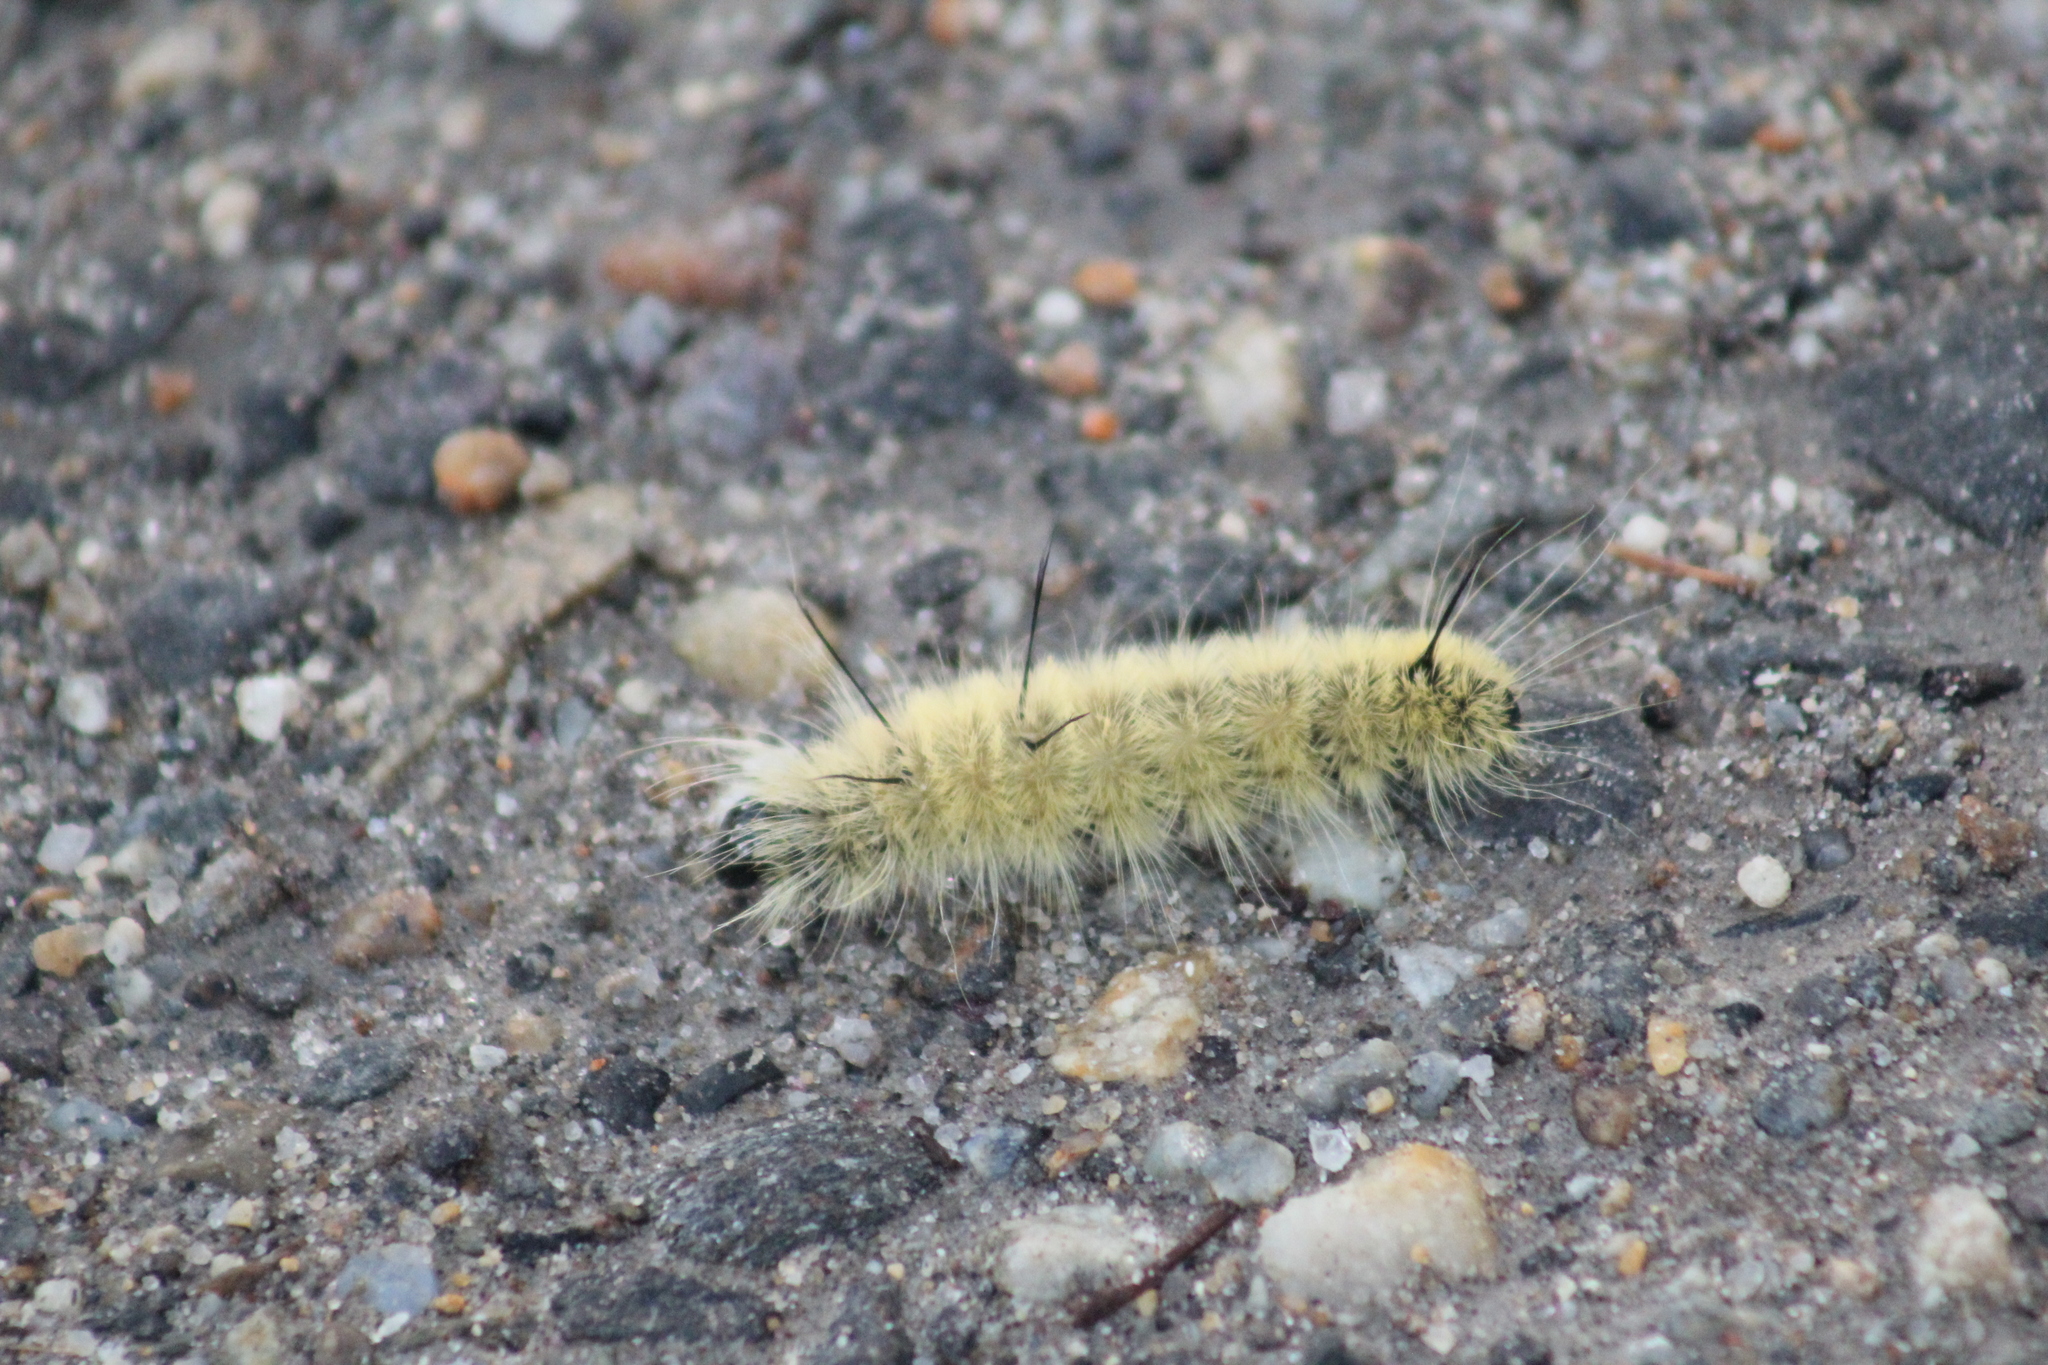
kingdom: Animalia
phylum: Arthropoda
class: Insecta
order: Lepidoptera
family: Noctuidae
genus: Acronicta
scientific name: Acronicta americana
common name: American dagger
